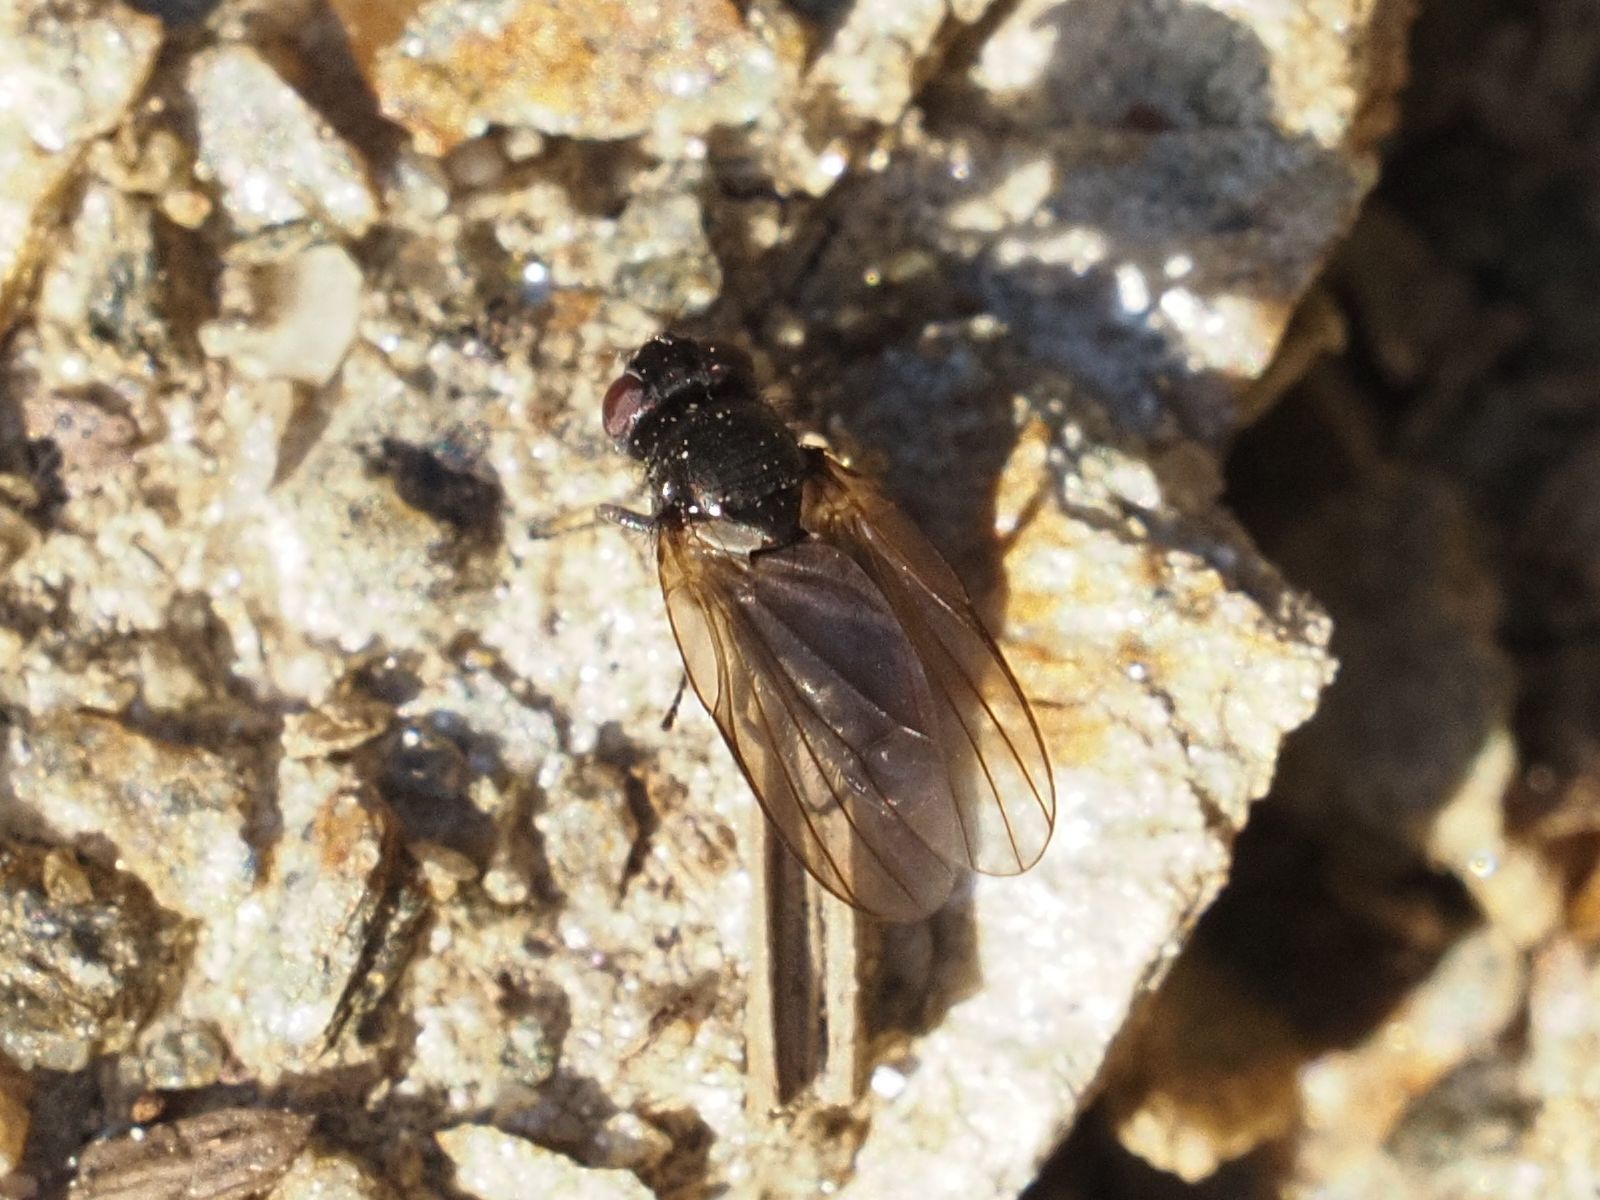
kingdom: Animalia
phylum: Arthropoda
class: Insecta
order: Diptera
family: Lonchaeidae
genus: Earomyia
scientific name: Earomyia lonchaeoides
